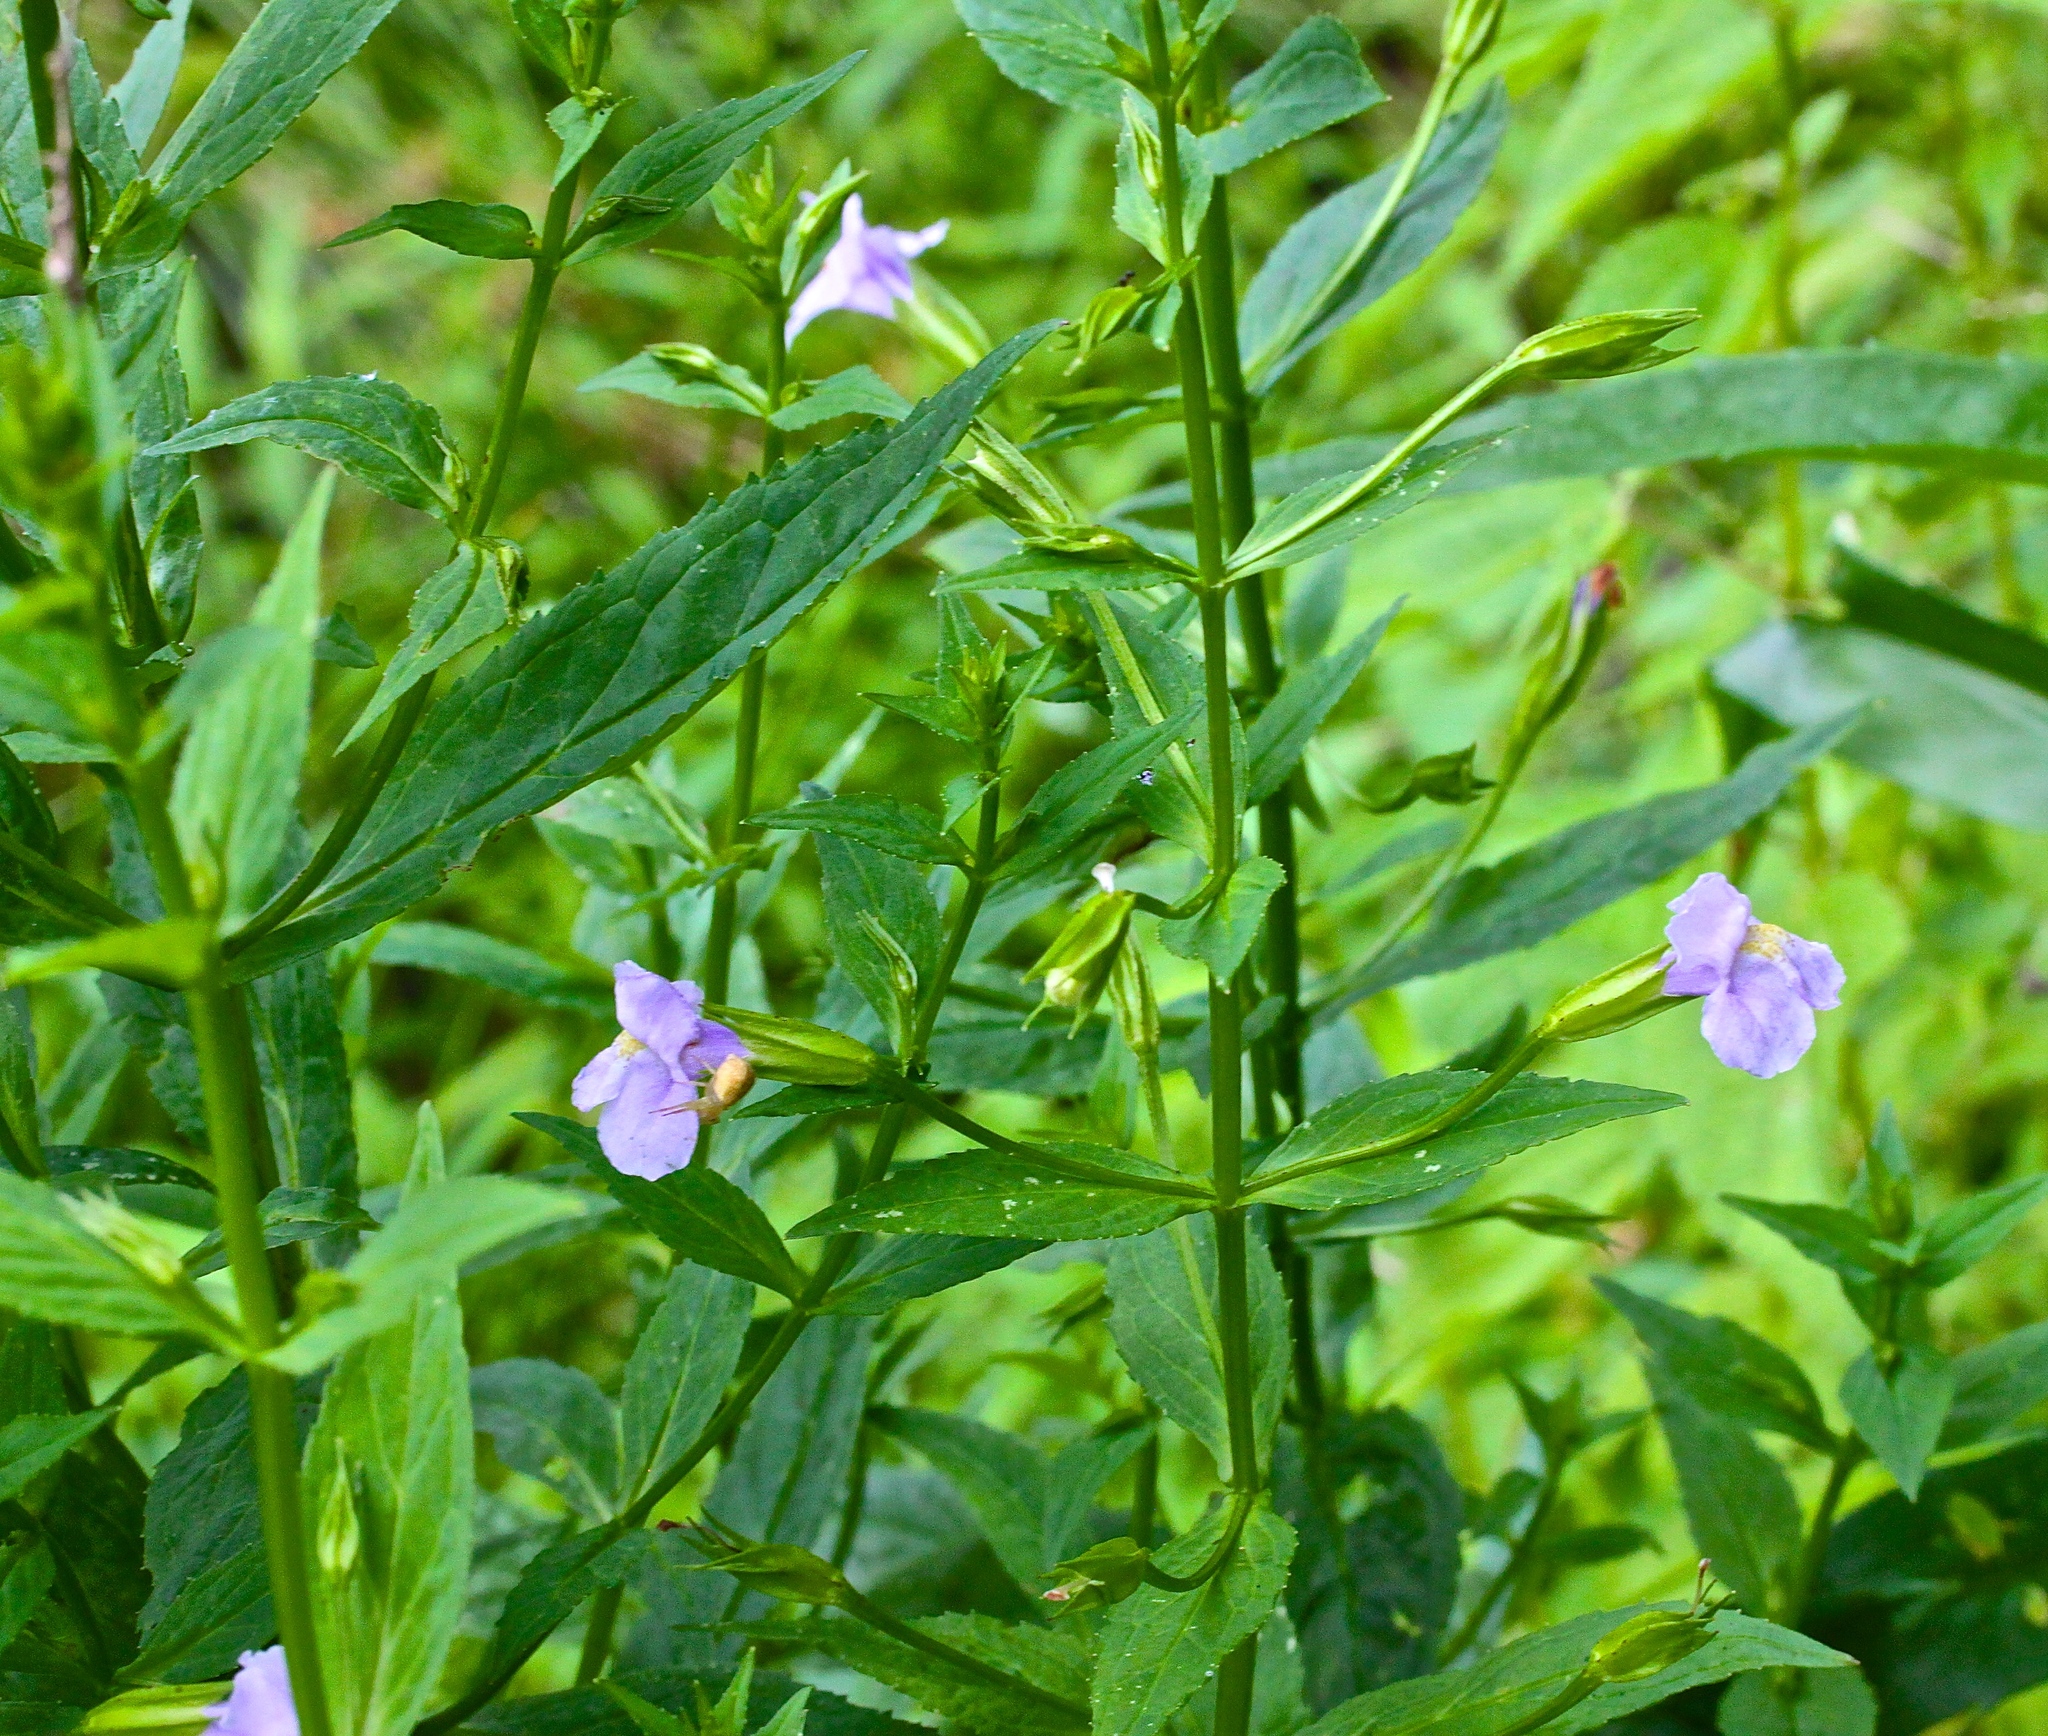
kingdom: Plantae
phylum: Tracheophyta
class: Magnoliopsida
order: Lamiales
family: Phrymaceae
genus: Mimulus
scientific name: Mimulus ringens
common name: Allegheny monkeyflower
